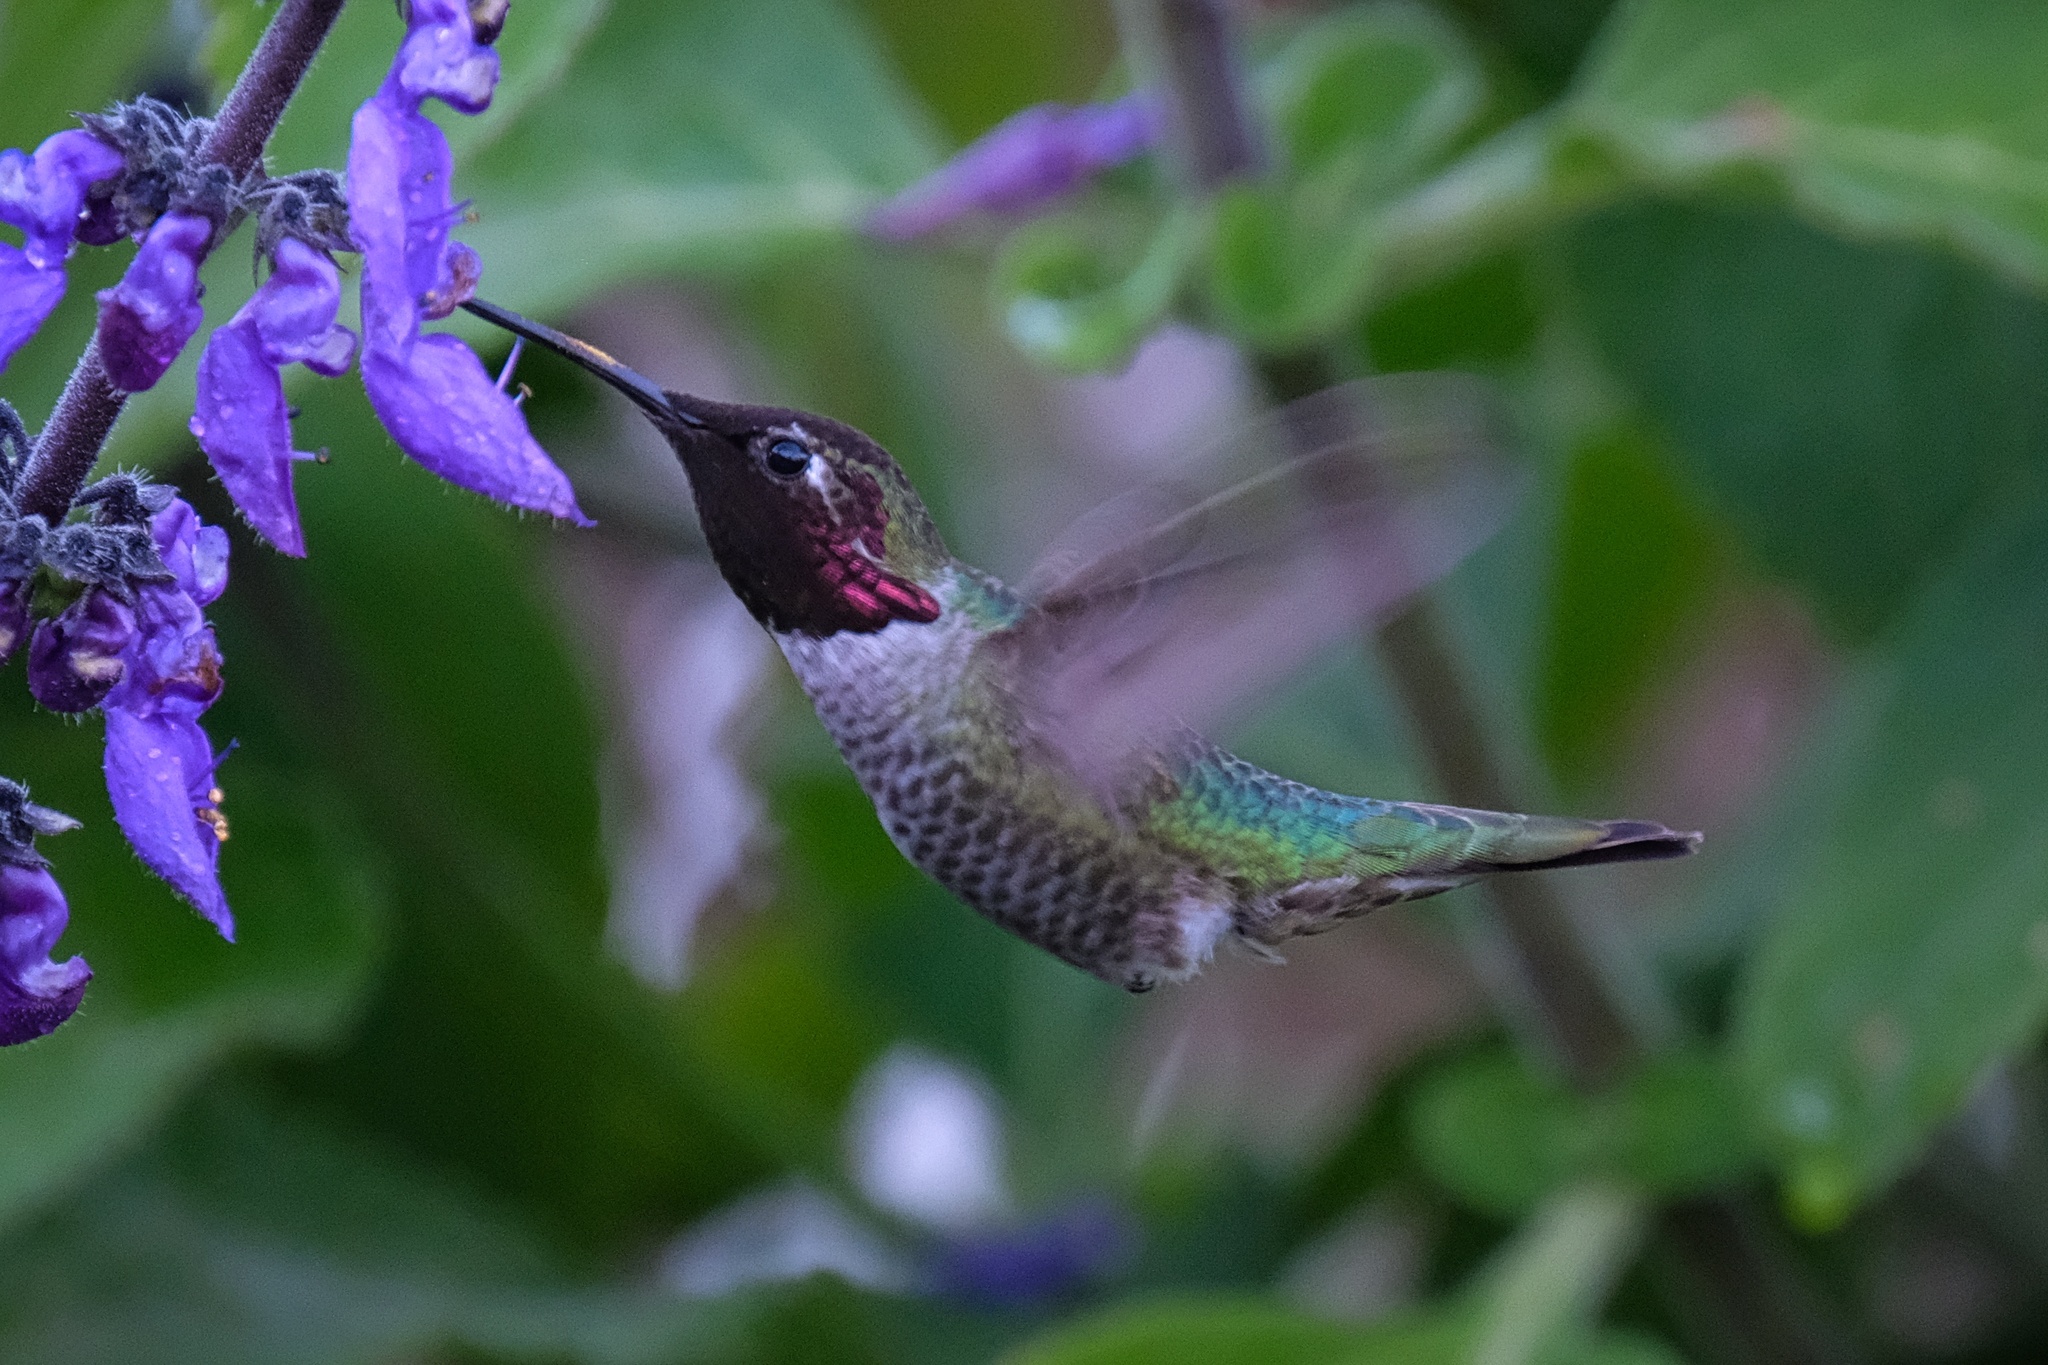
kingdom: Animalia
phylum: Chordata
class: Aves
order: Apodiformes
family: Trochilidae
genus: Calypte
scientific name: Calypte anna
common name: Anna's hummingbird
